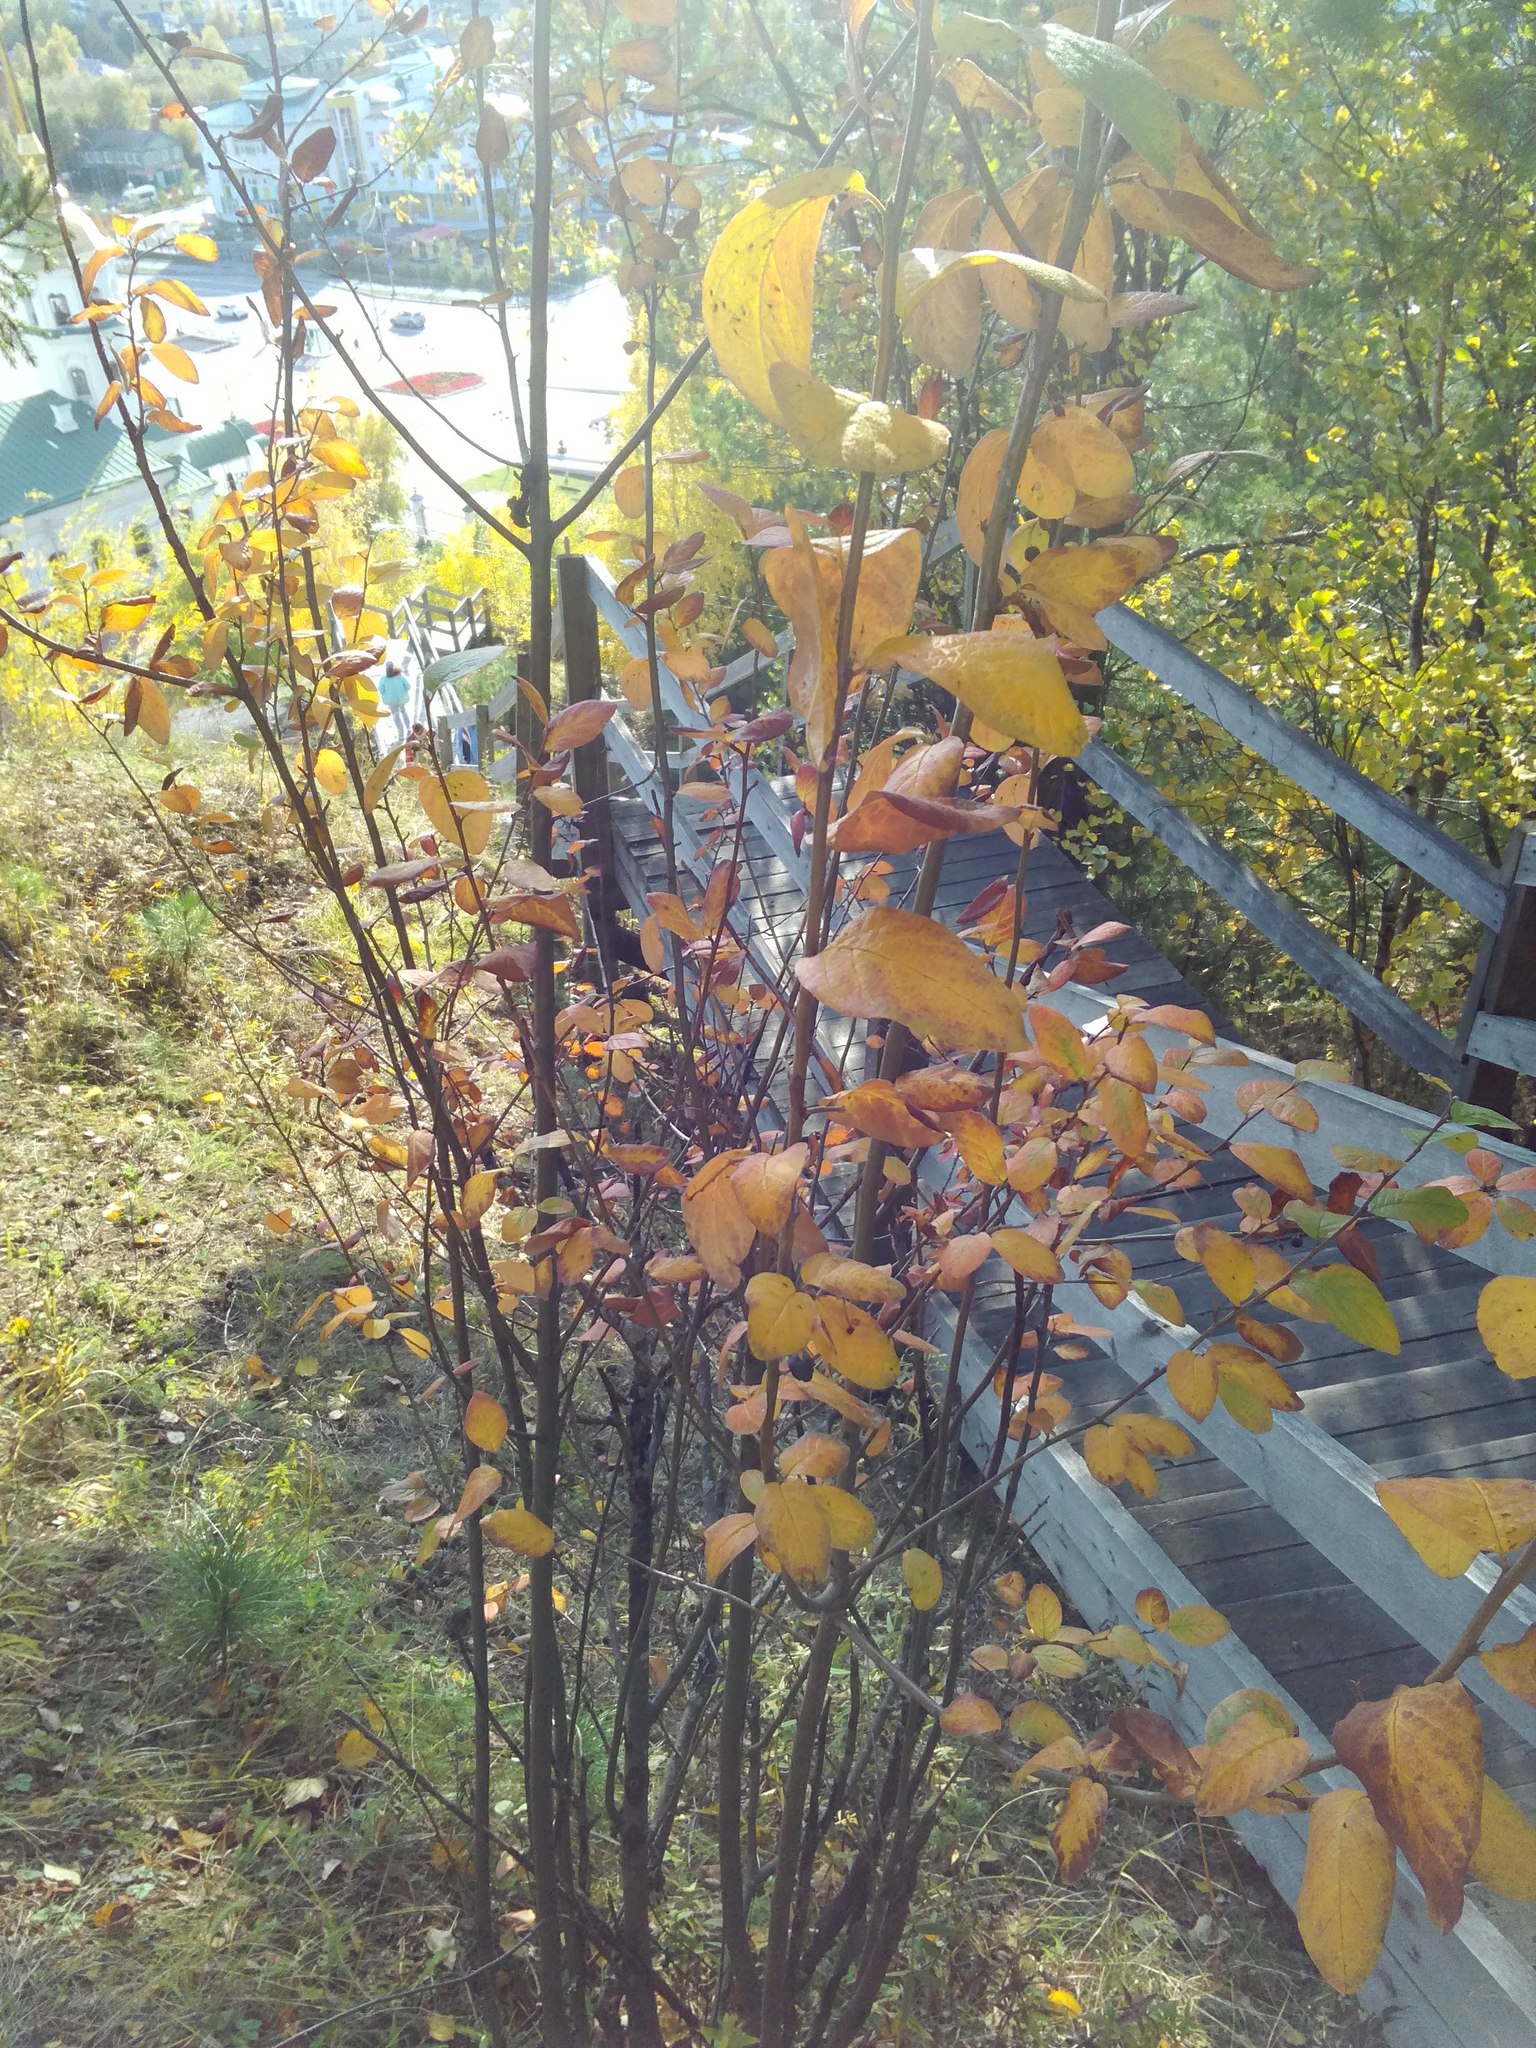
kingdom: Plantae
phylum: Tracheophyta
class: Magnoliopsida
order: Rosales
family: Rosaceae
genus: Cotoneaster
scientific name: Cotoneaster melanocarpus
